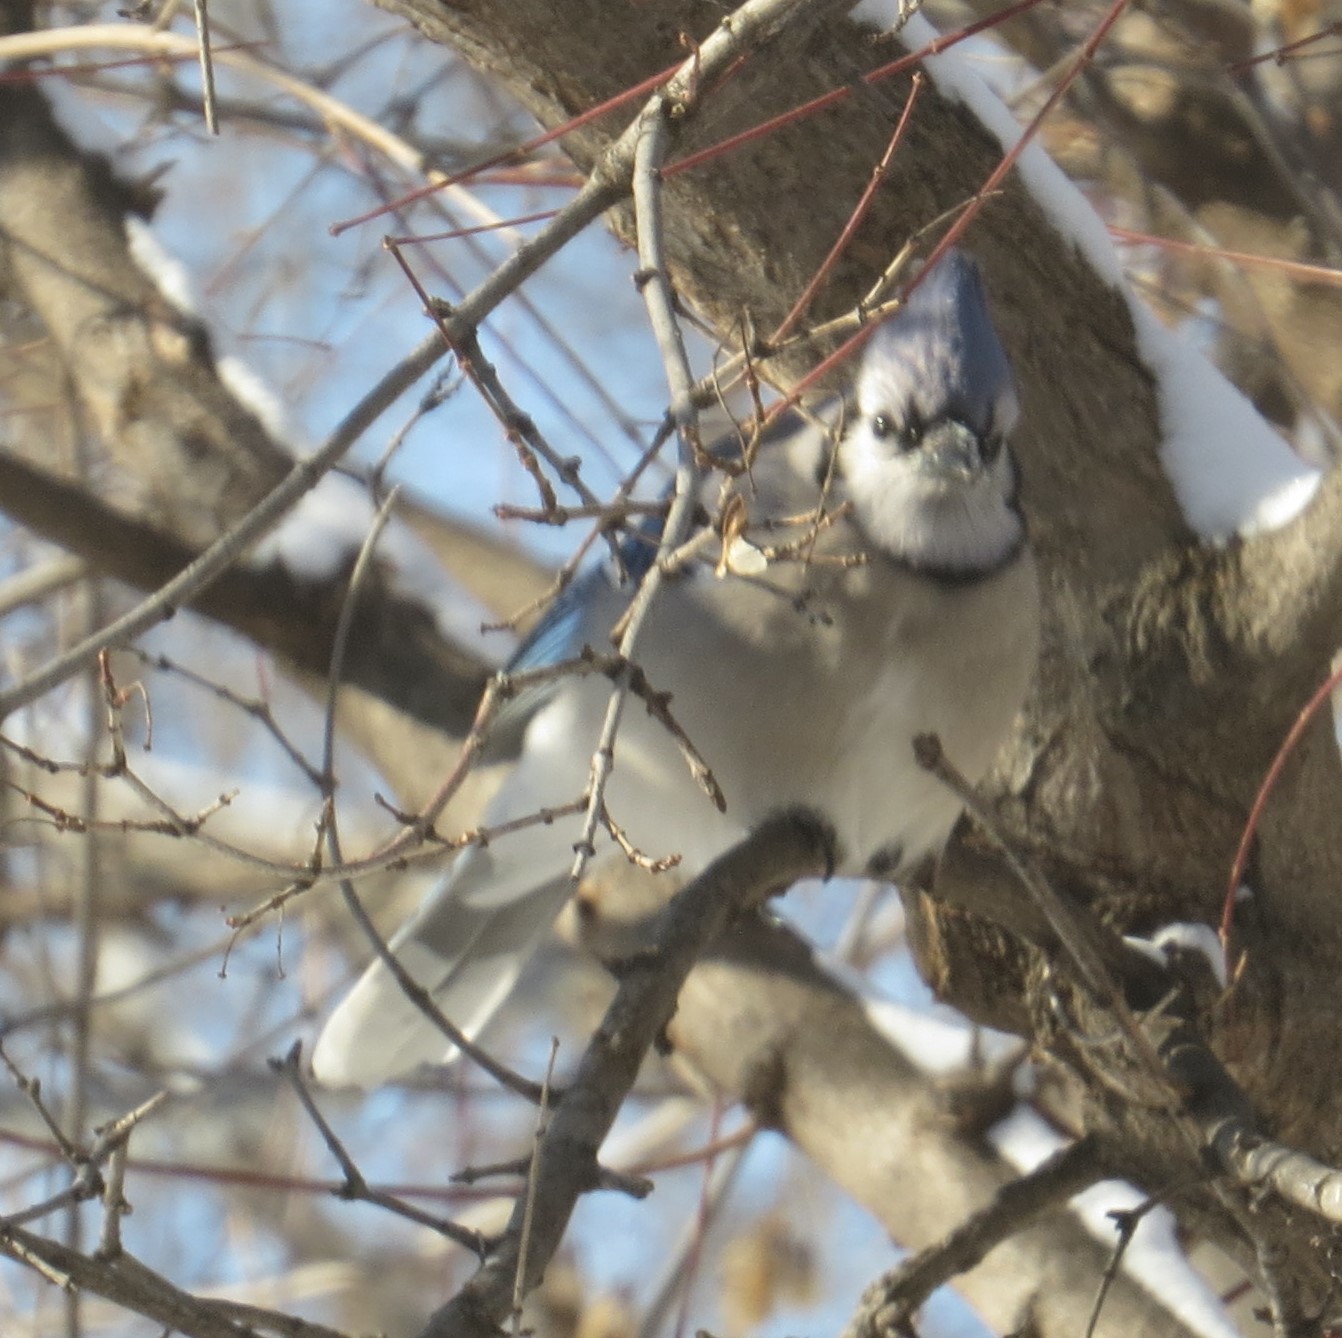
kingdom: Animalia
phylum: Chordata
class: Aves
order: Passeriformes
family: Corvidae
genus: Cyanocitta
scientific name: Cyanocitta cristata
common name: Blue jay
